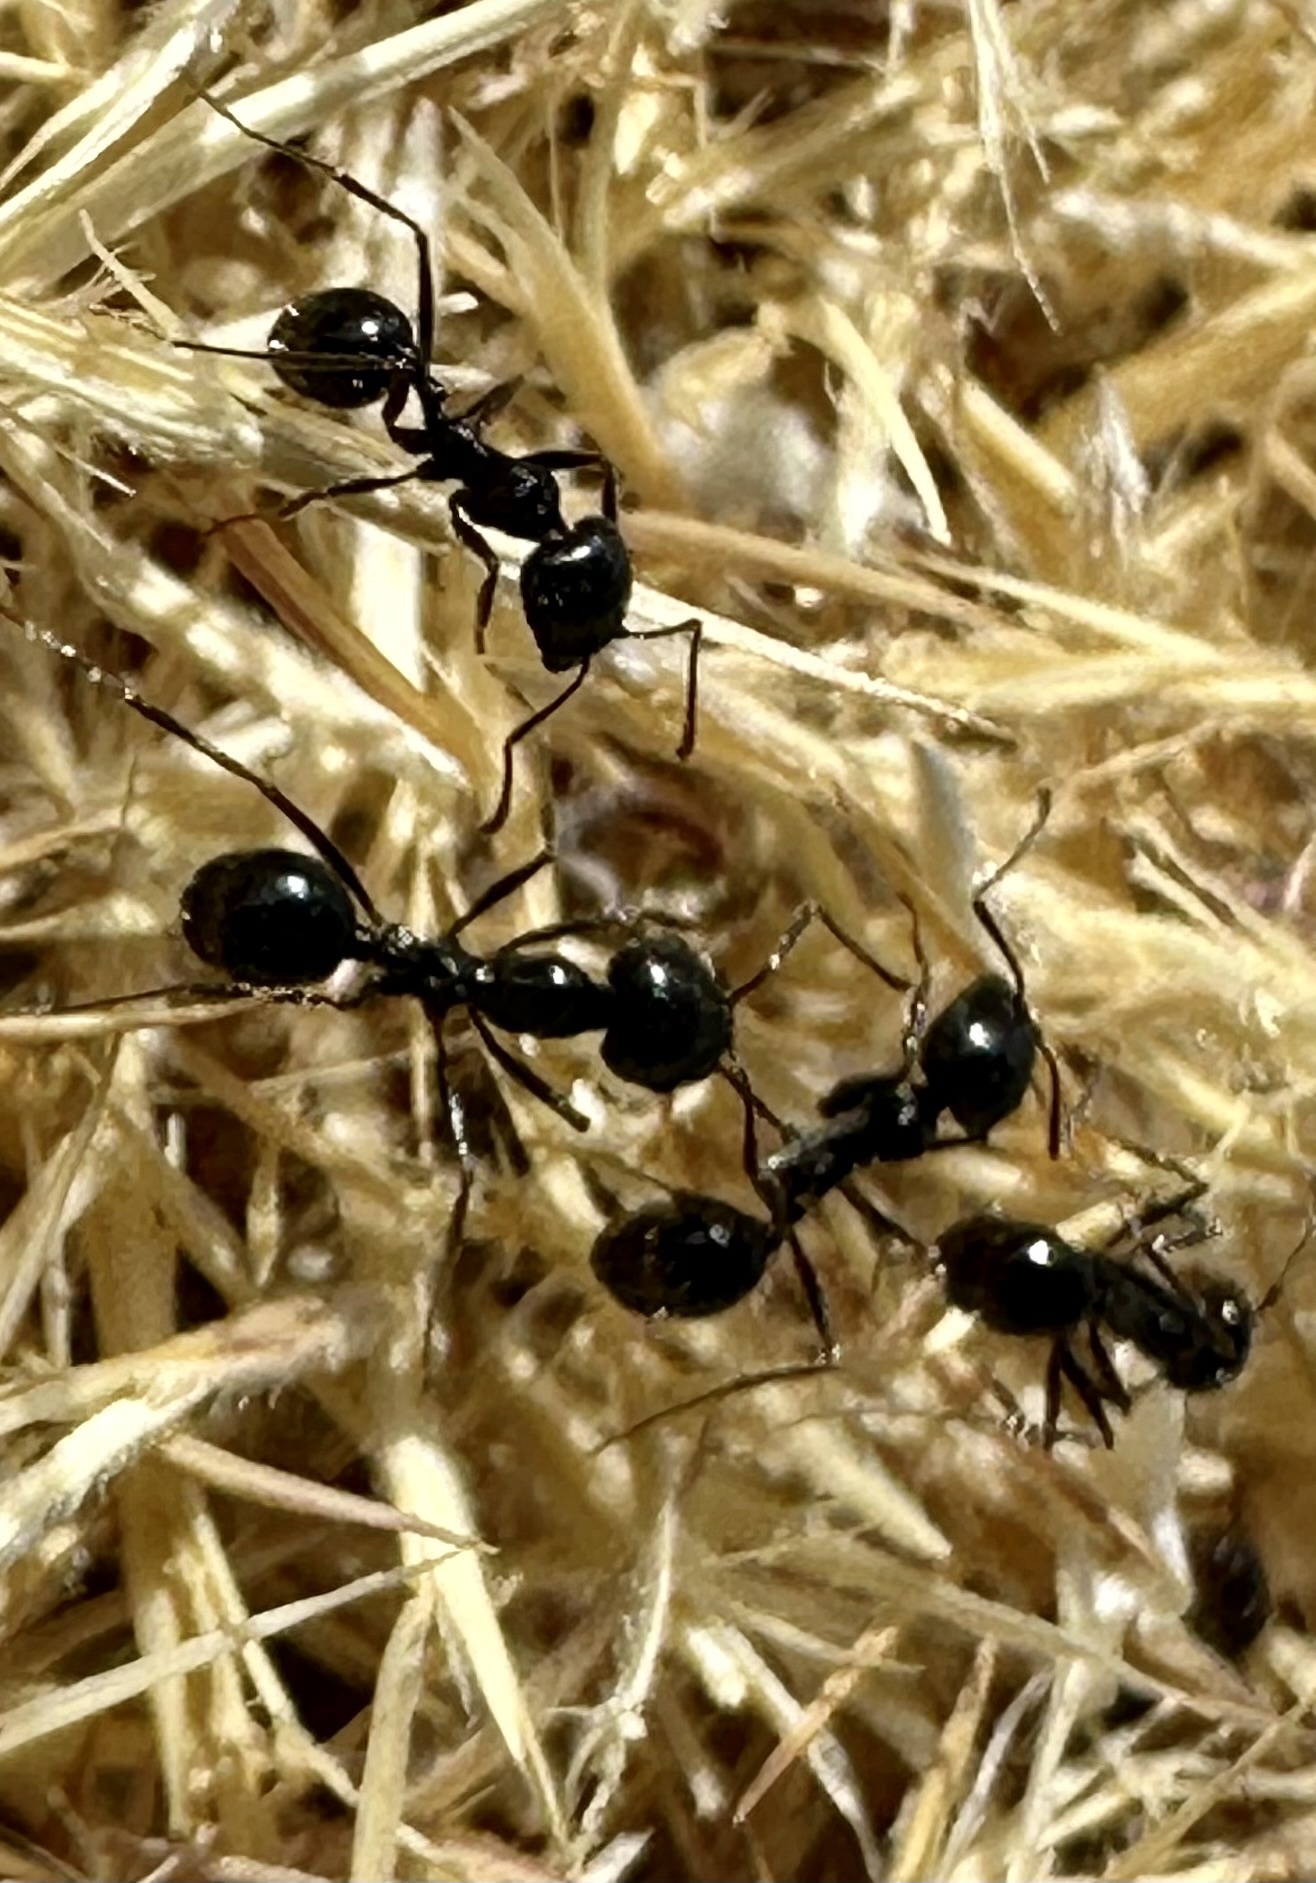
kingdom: Animalia
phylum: Arthropoda
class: Insecta
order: Hymenoptera
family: Formicidae
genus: Messor
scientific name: Messor pergandei
